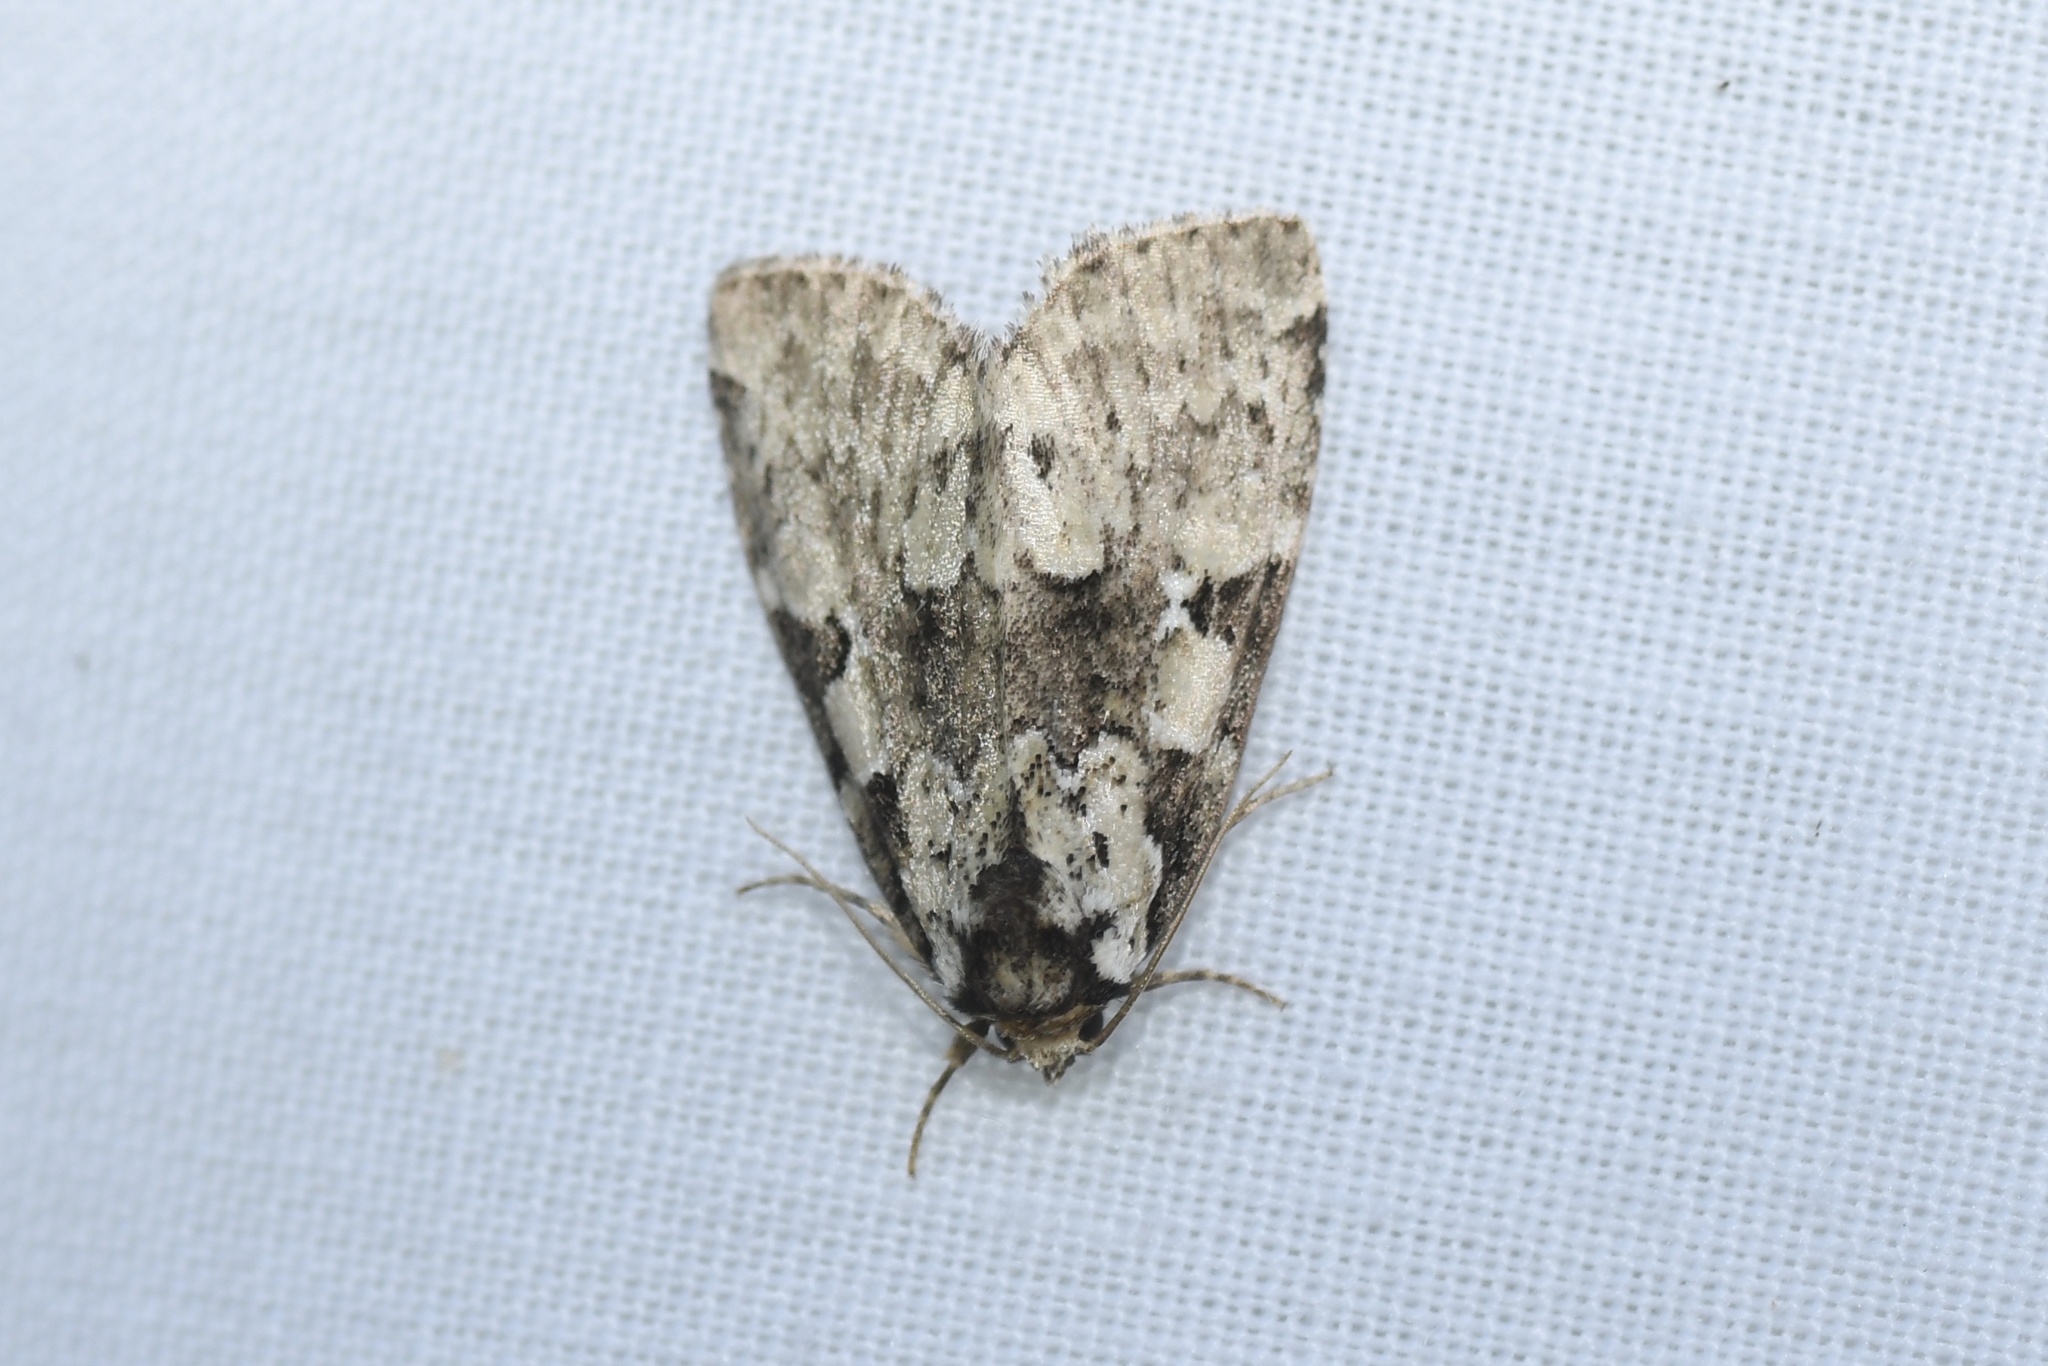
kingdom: Animalia
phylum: Arthropoda
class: Insecta
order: Lepidoptera
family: Noctuidae
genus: Leuconycta
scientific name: Leuconycta lepidula
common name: Marbled-green leuconycta moth
